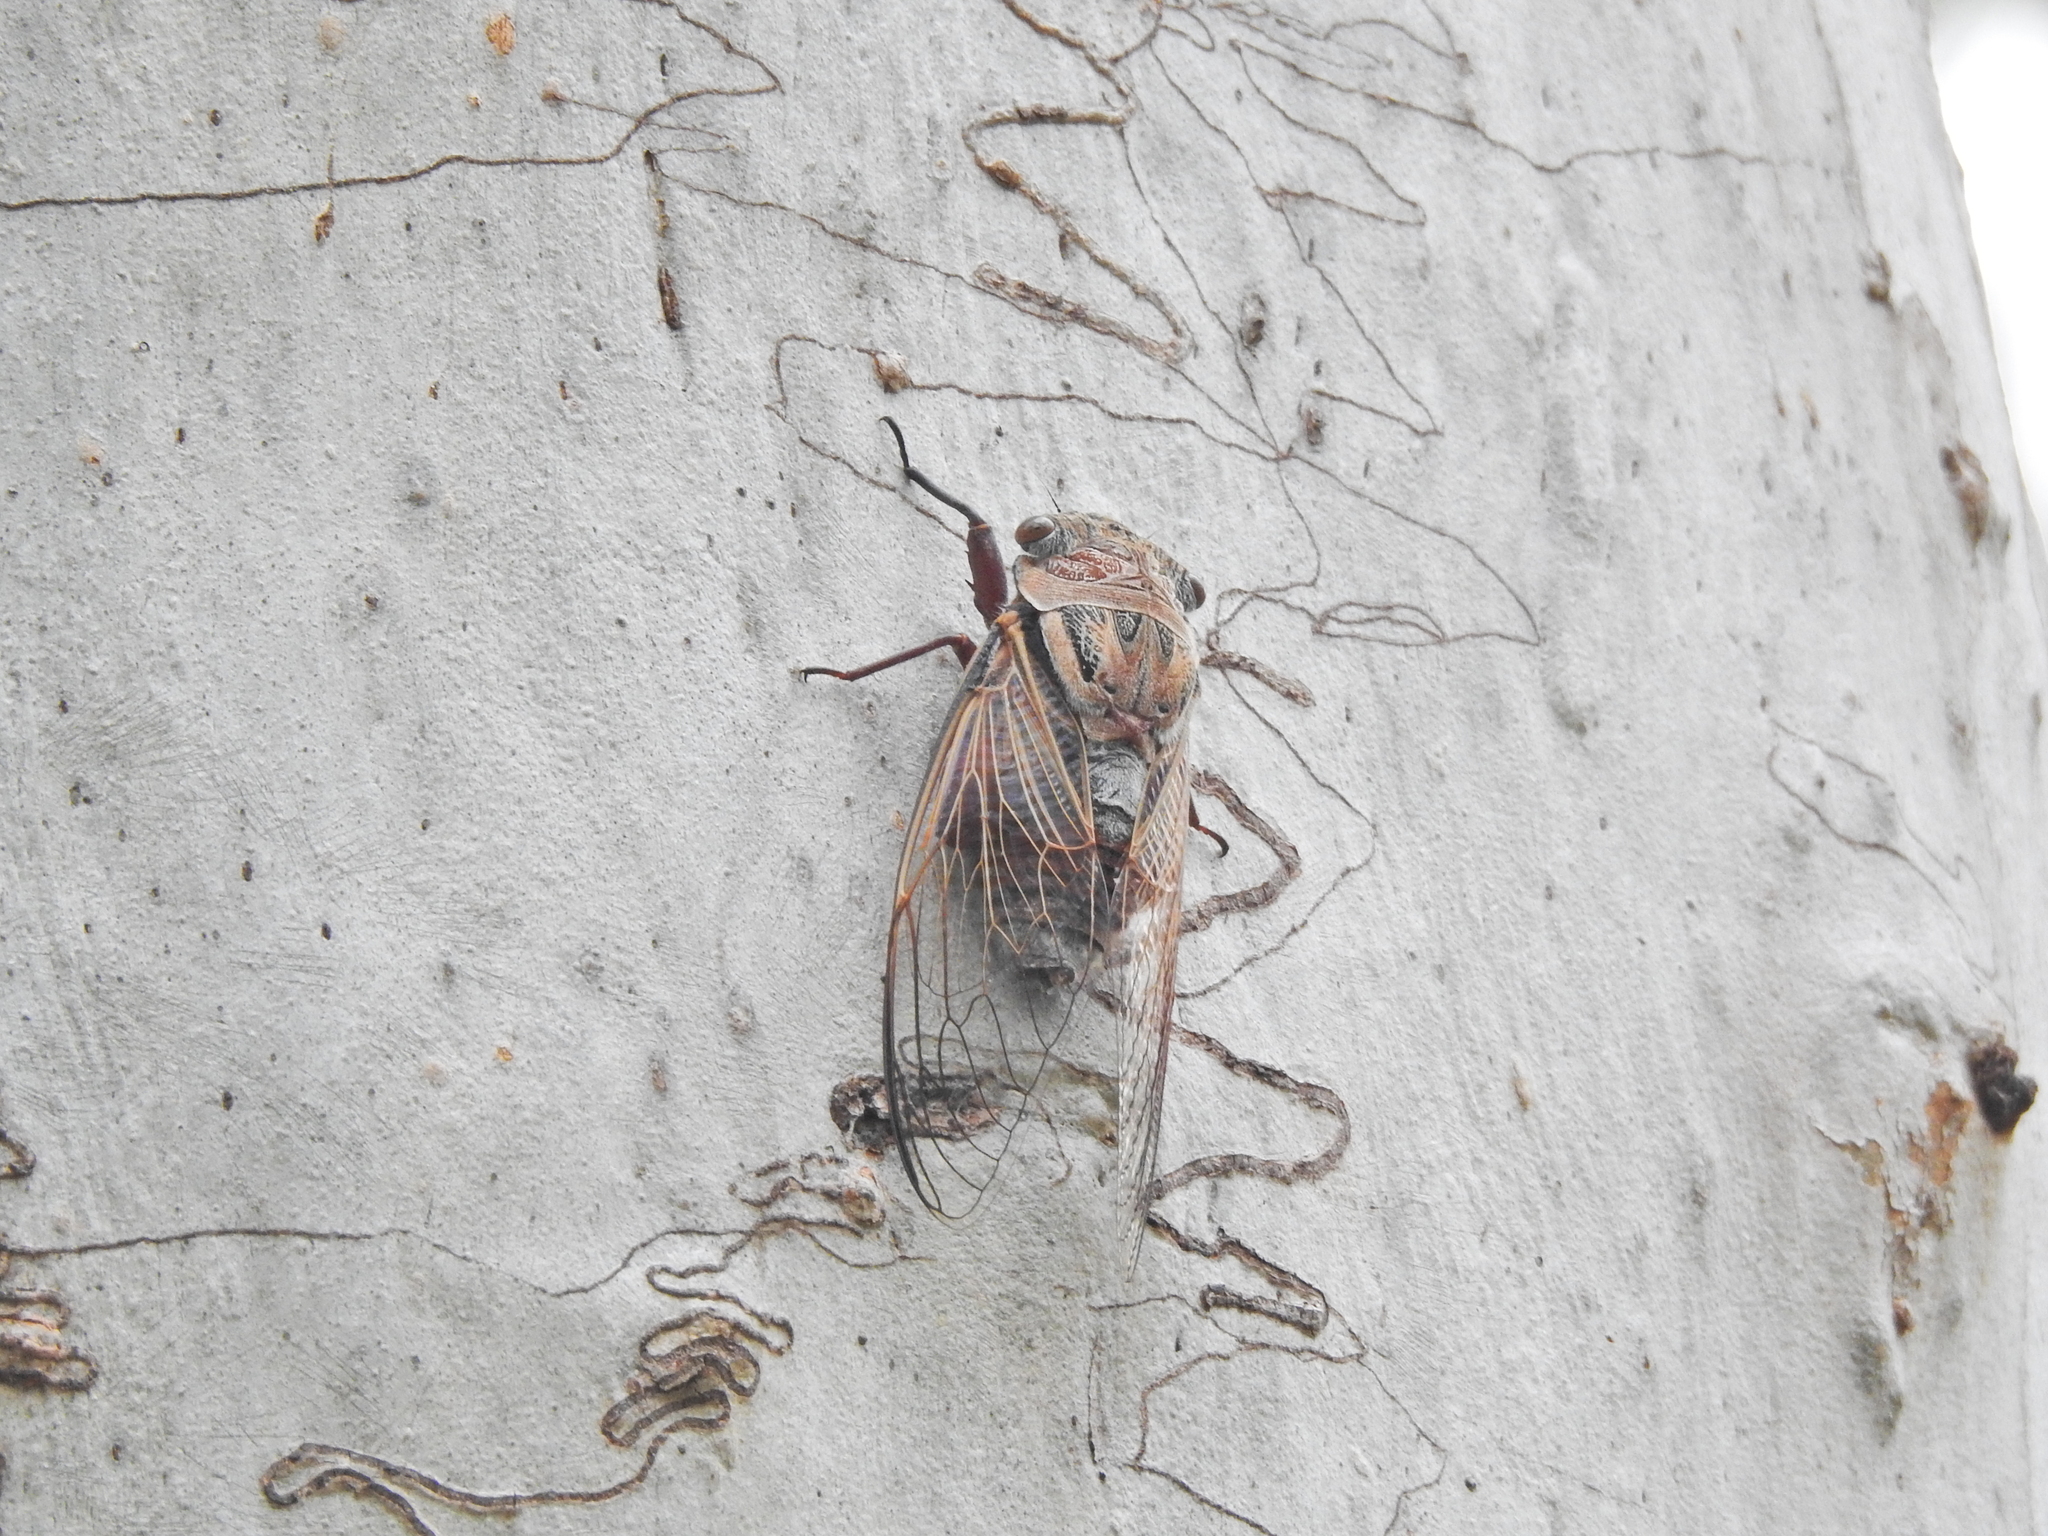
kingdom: Animalia
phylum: Arthropoda
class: Insecta
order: Hemiptera
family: Cicadidae
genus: Thopha
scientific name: Thopha saccata
